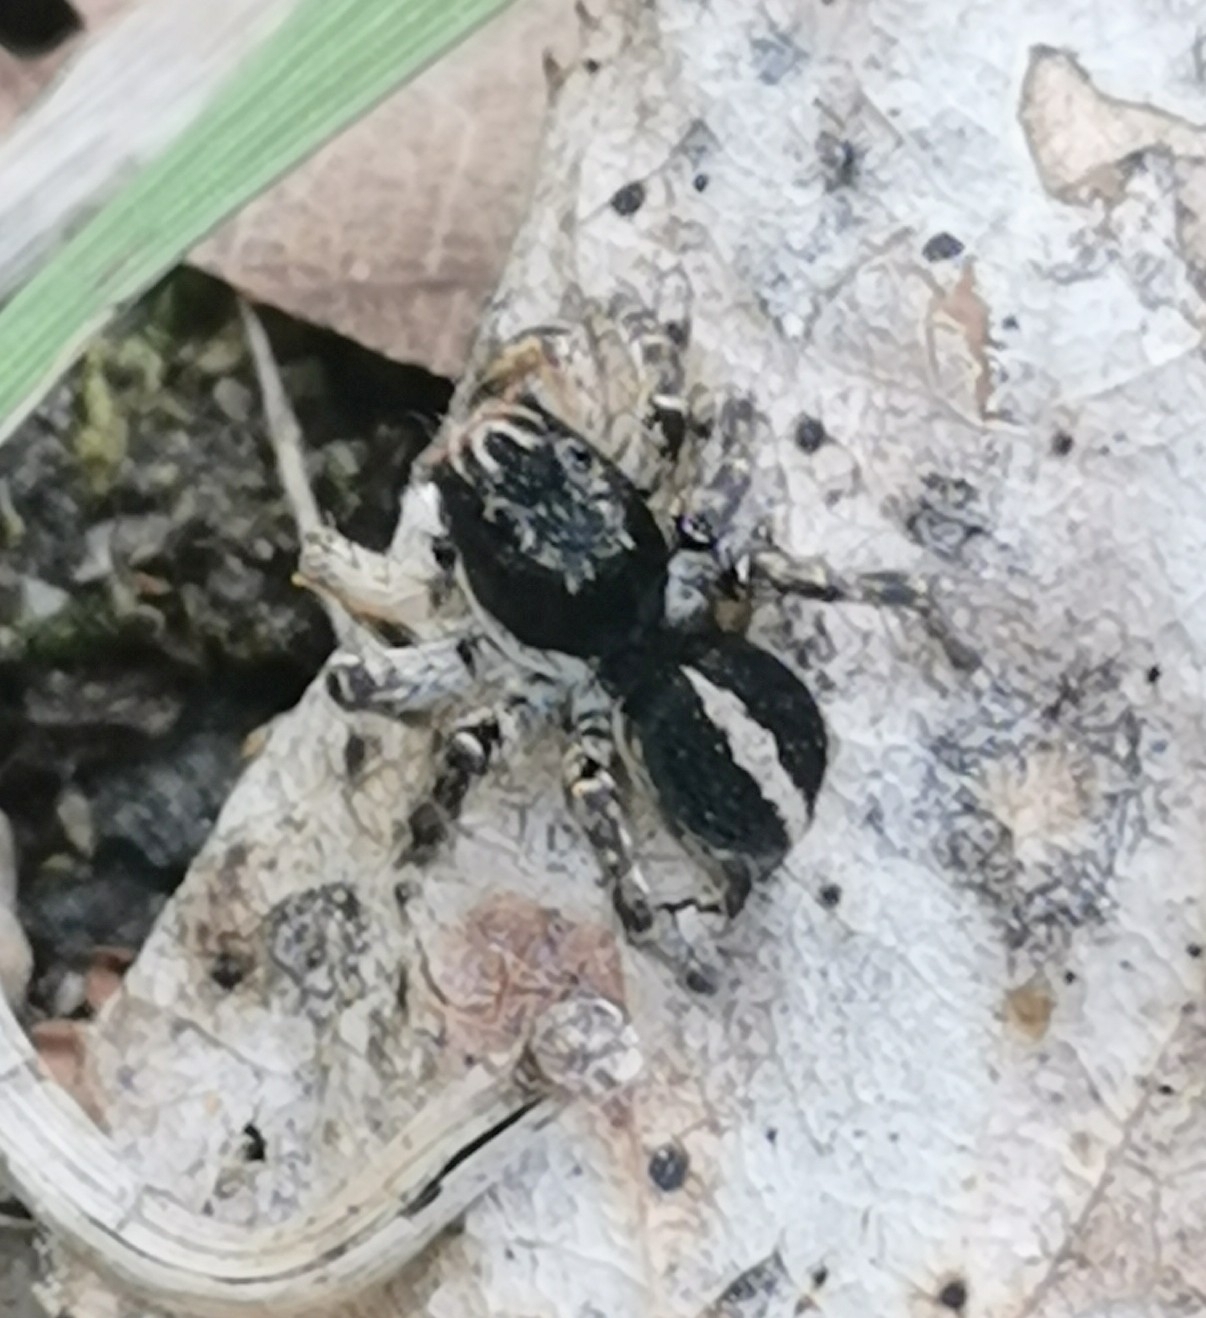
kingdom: Animalia
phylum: Arthropoda
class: Arachnida
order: Araneae
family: Salticidae
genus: Aelurillus
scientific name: Aelurillus v-insignitus
